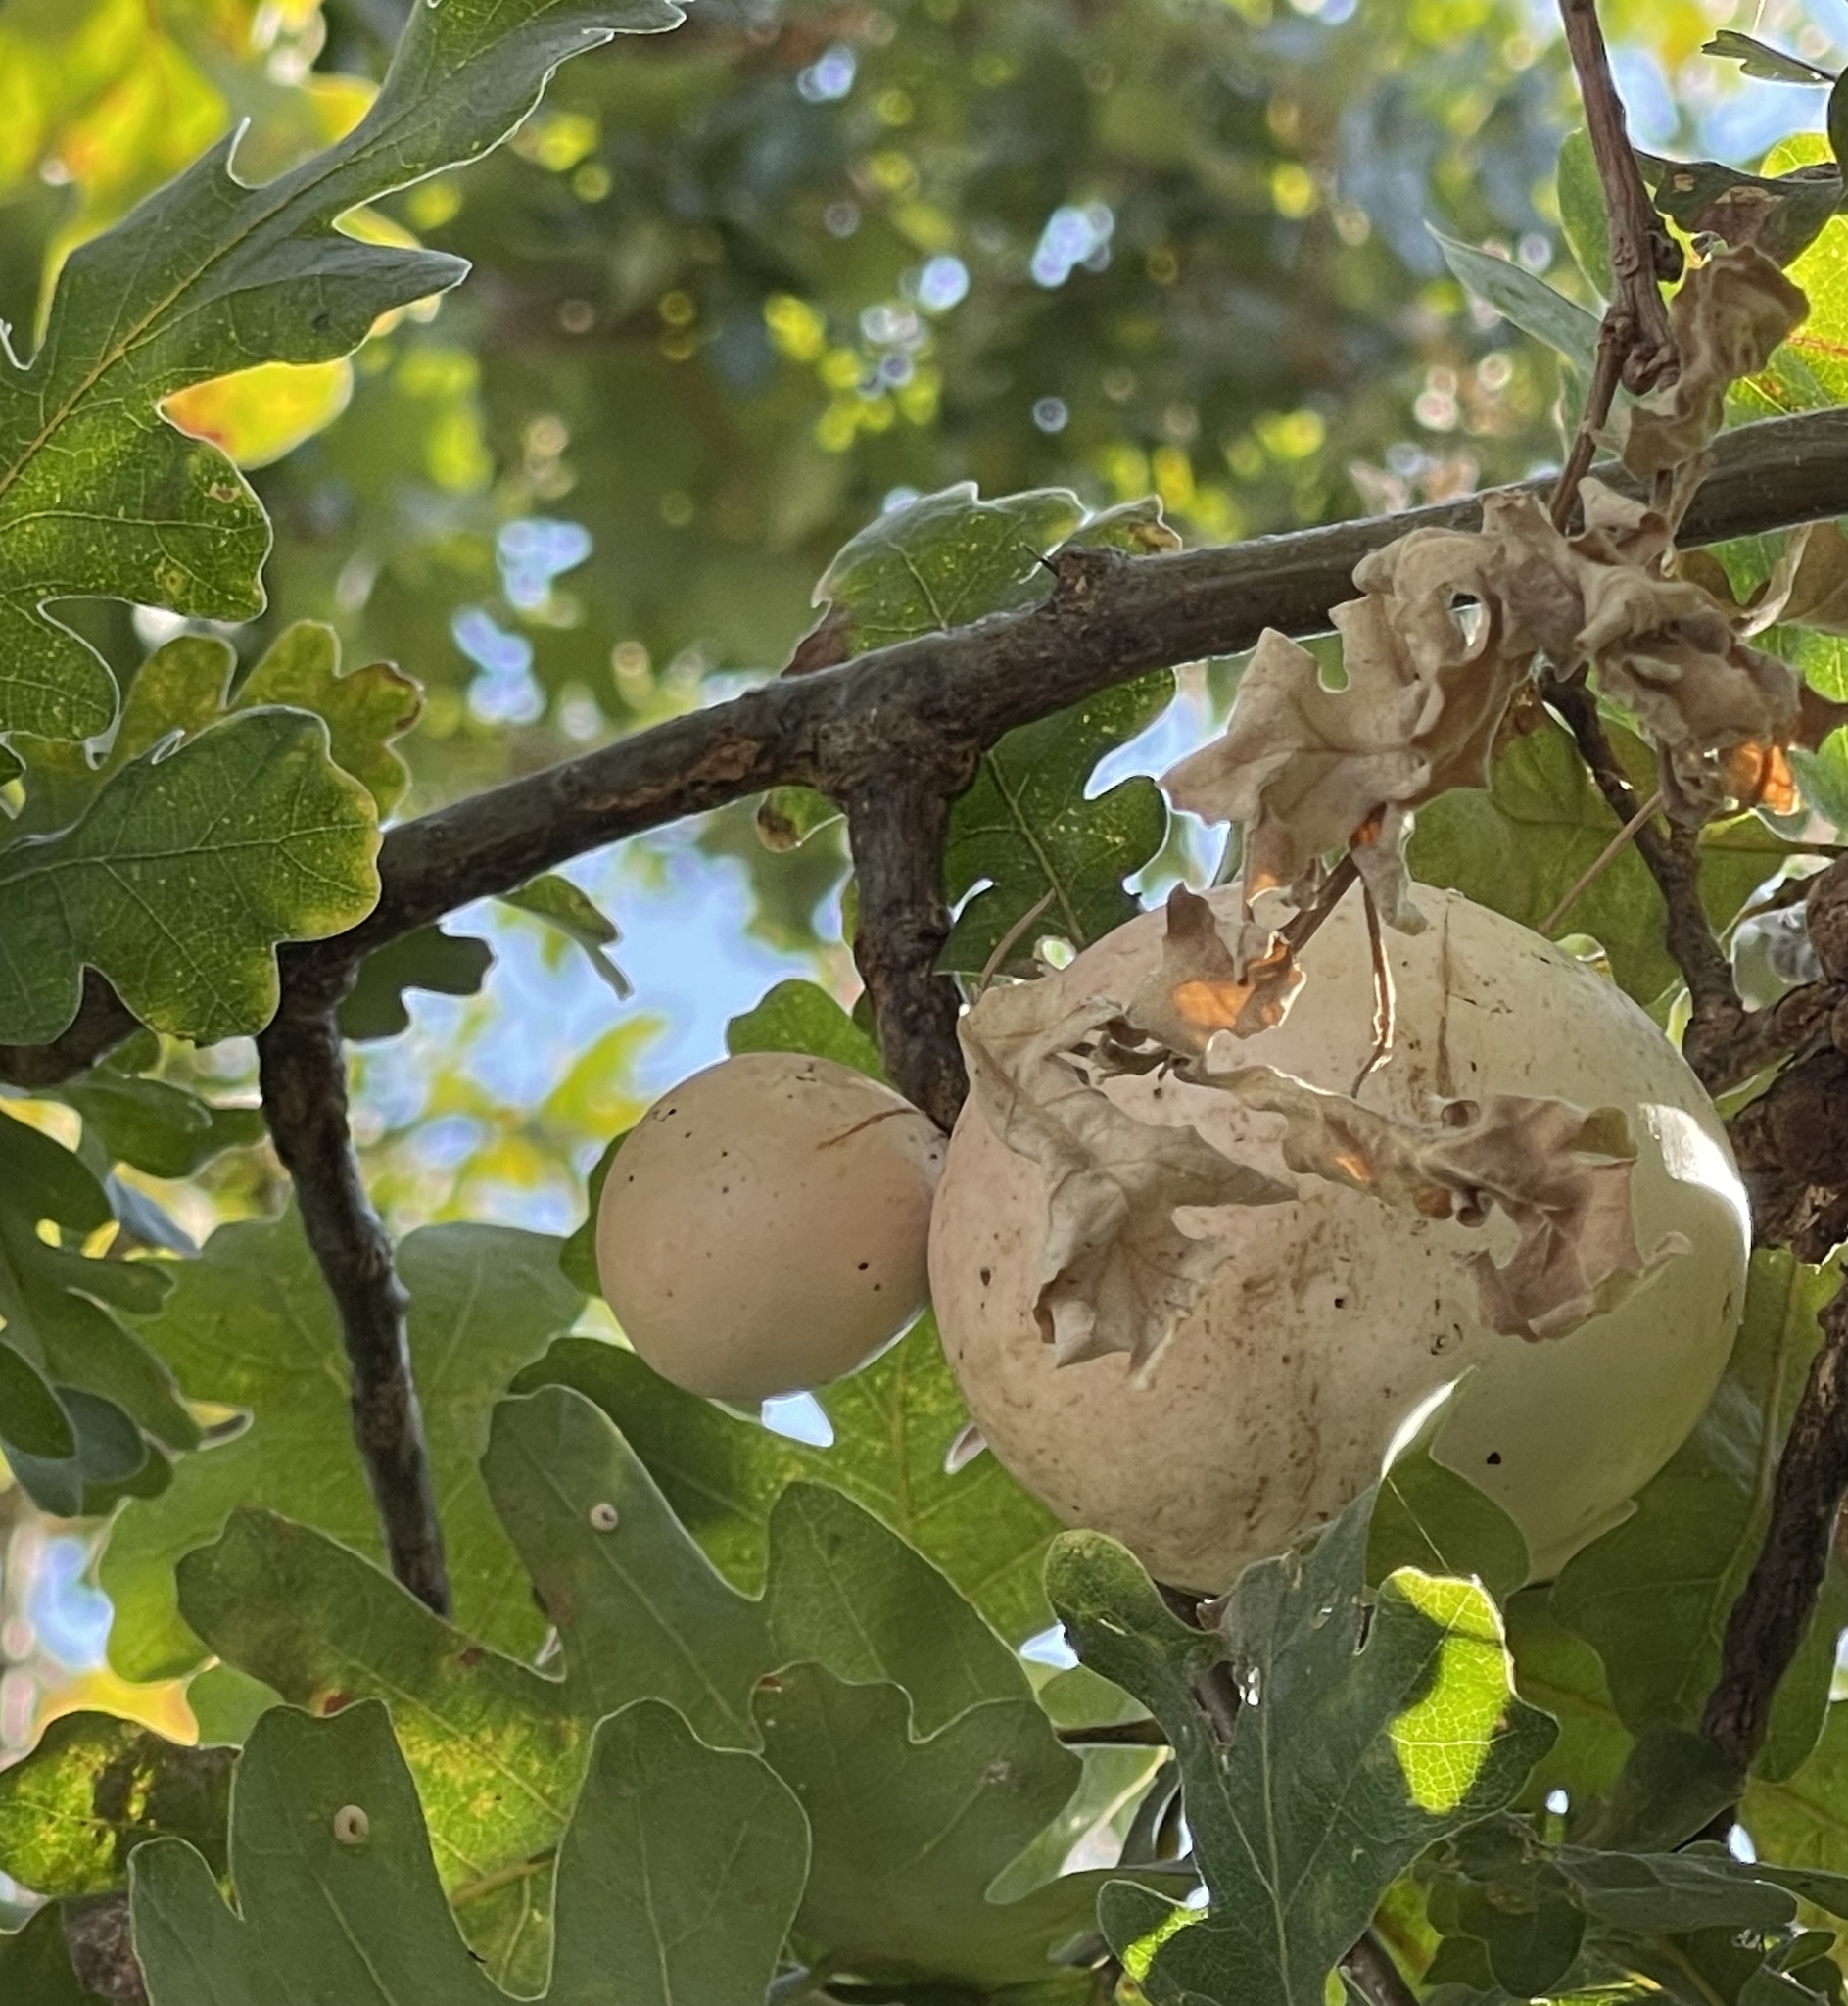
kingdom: Animalia
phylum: Arthropoda
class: Insecta
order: Hymenoptera
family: Cynipidae
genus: Andricus
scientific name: Andricus quercuscalifornicus
